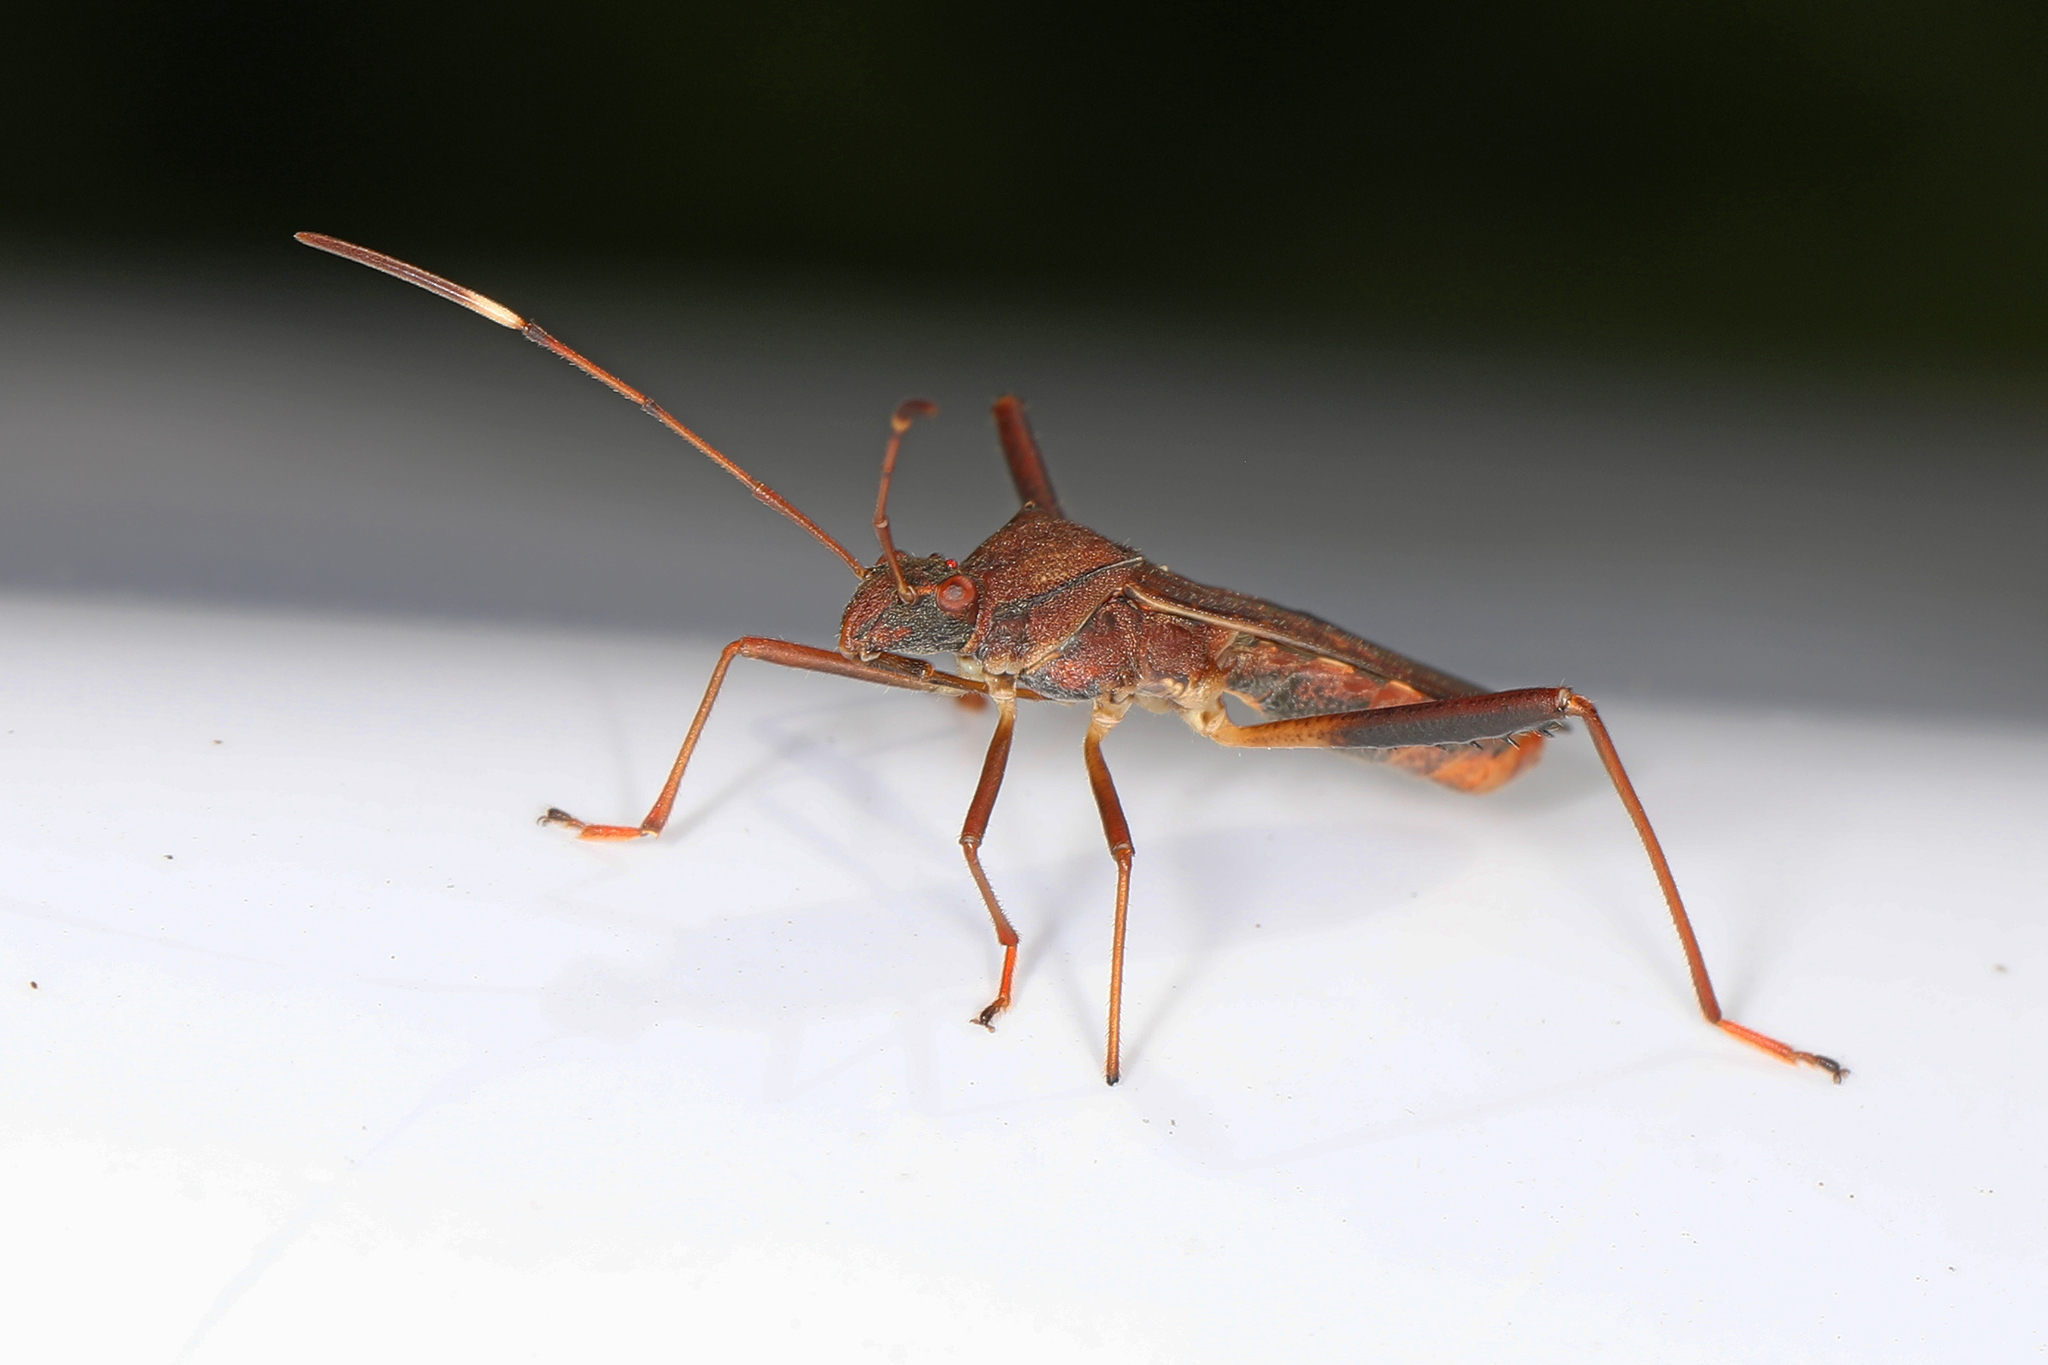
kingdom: Animalia
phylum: Arthropoda
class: Insecta
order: Hemiptera
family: Alydidae
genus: Megalotomus
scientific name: Megalotomus quinquespinosus
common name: Lupine bug
